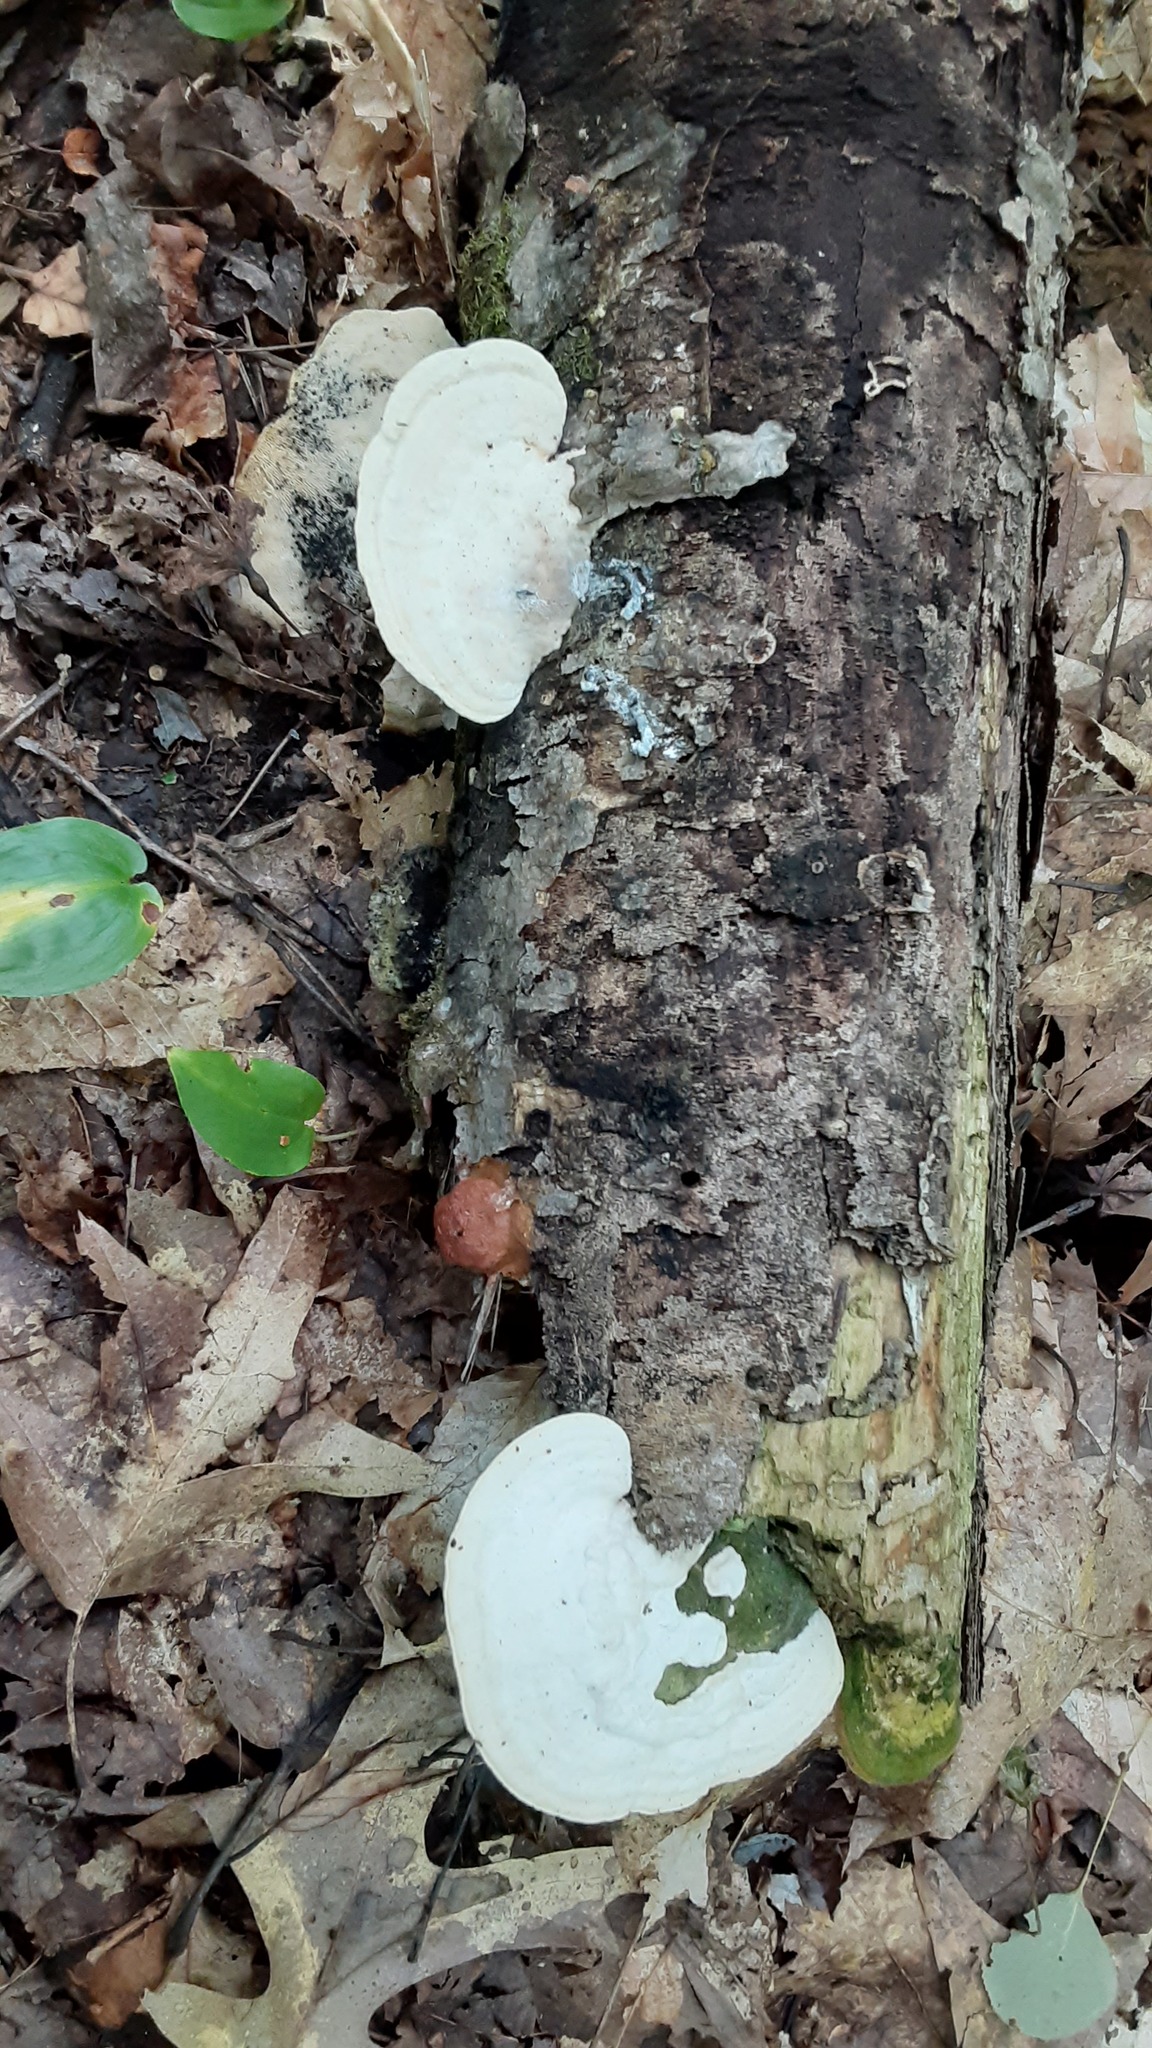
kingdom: Fungi
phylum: Basidiomycota
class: Agaricomycetes
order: Polyporales
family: Polyporaceae
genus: Trametes
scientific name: Trametes gibbosa
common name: Lumpy bracket
